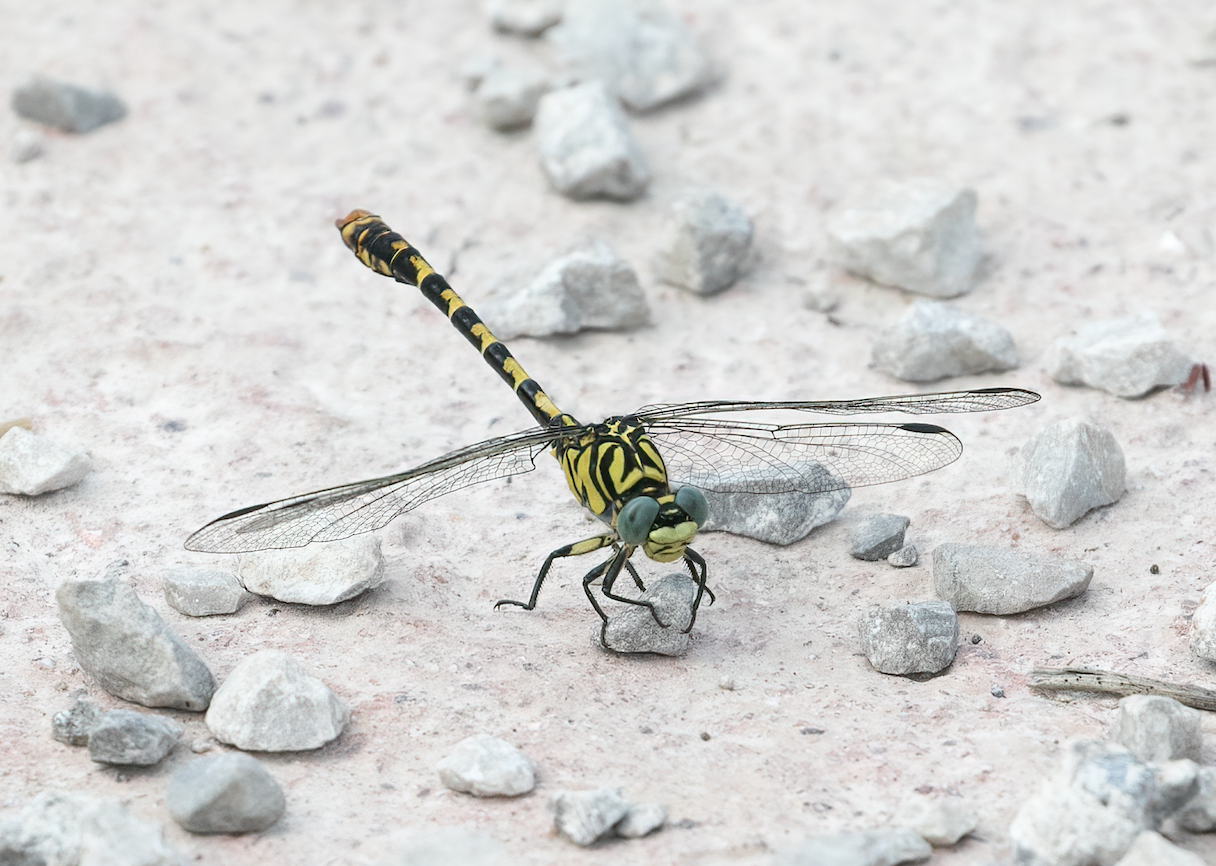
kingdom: Animalia
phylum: Arthropoda
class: Insecta
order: Odonata
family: Gomphidae
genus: Onychogomphus
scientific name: Onychogomphus forcipatus
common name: Small pincertail
